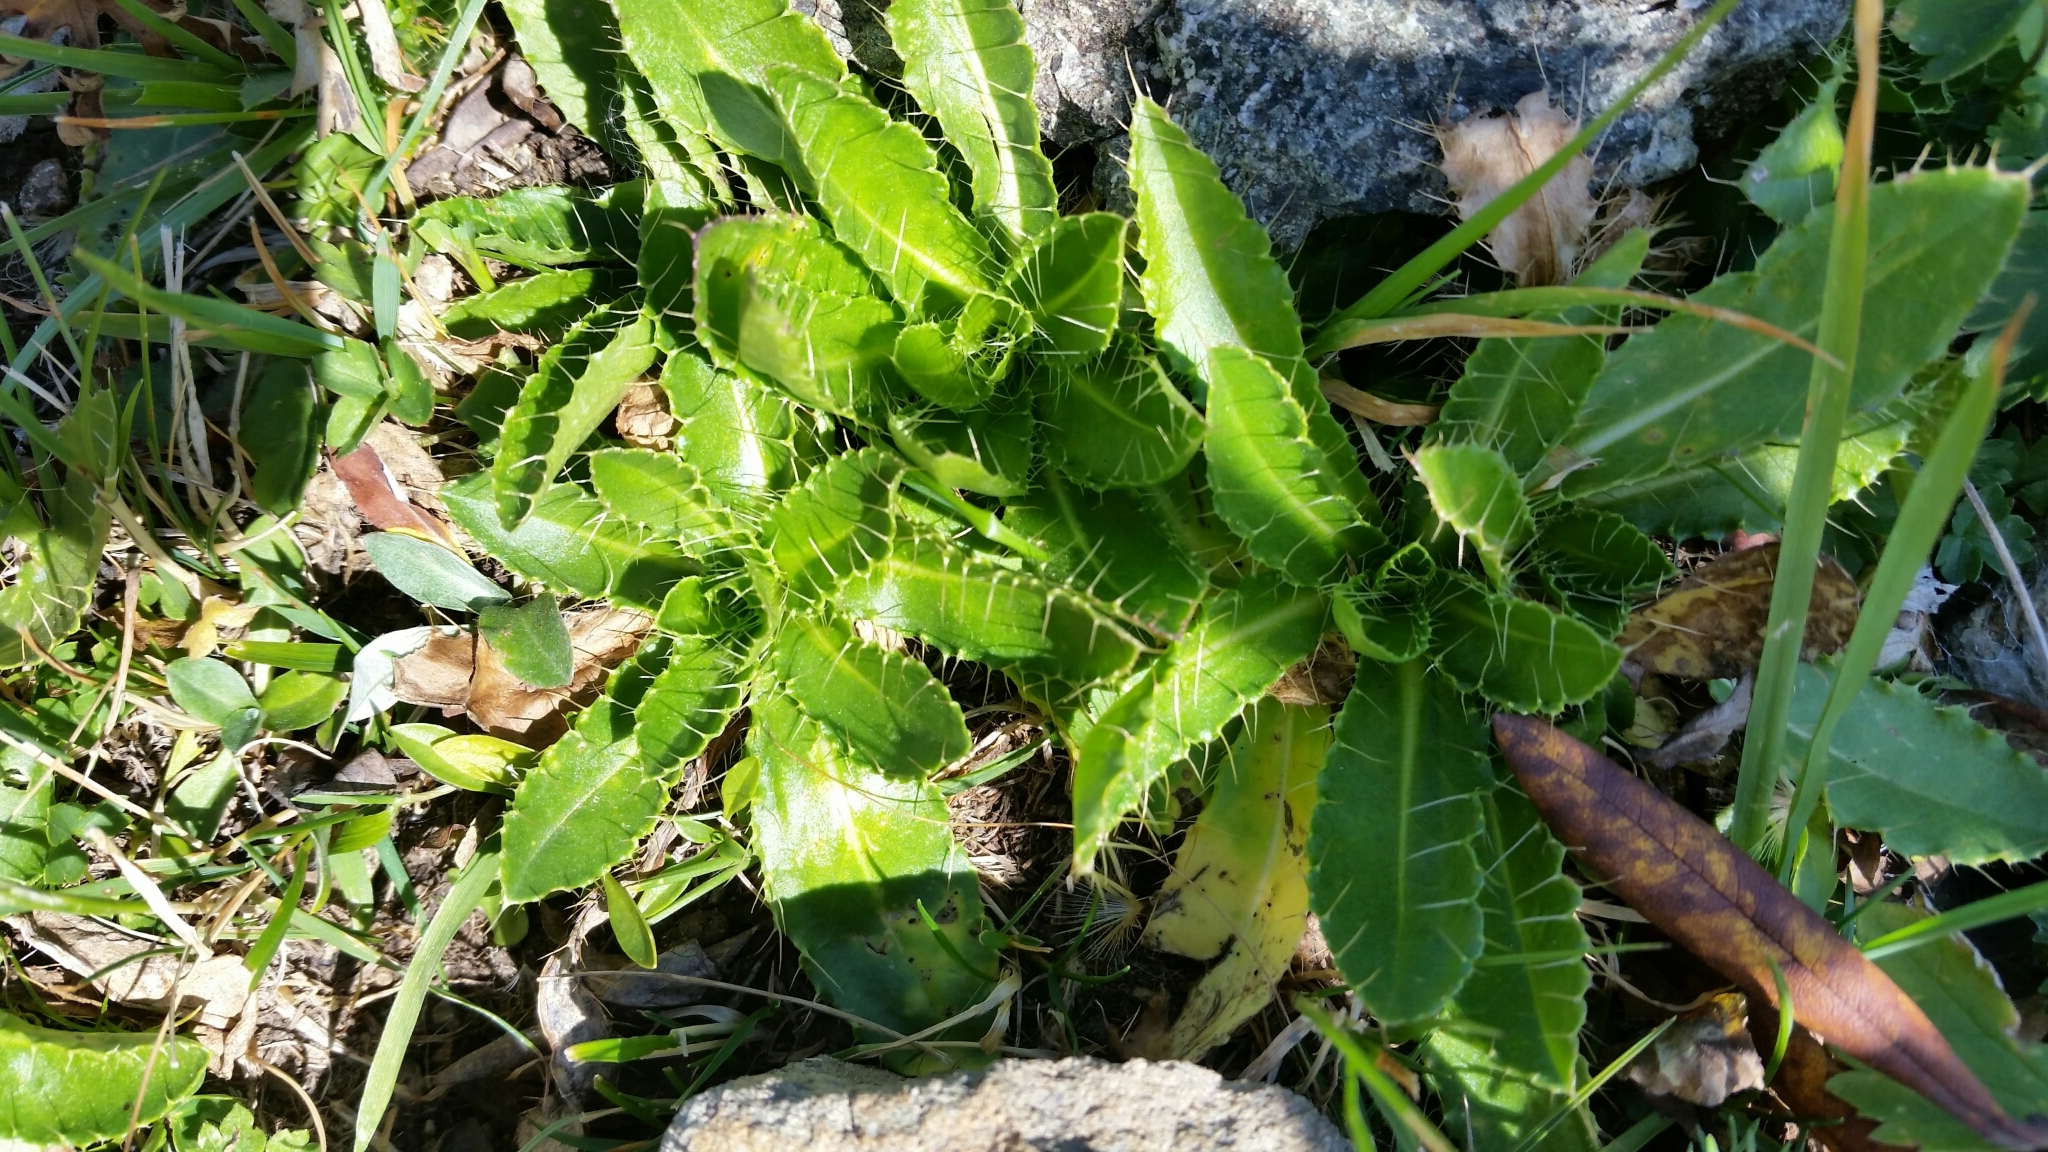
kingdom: Plantae
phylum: Tracheophyta
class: Magnoliopsida
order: Asterales
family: Asteraceae
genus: Cirsium
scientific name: Cirsium simplex
